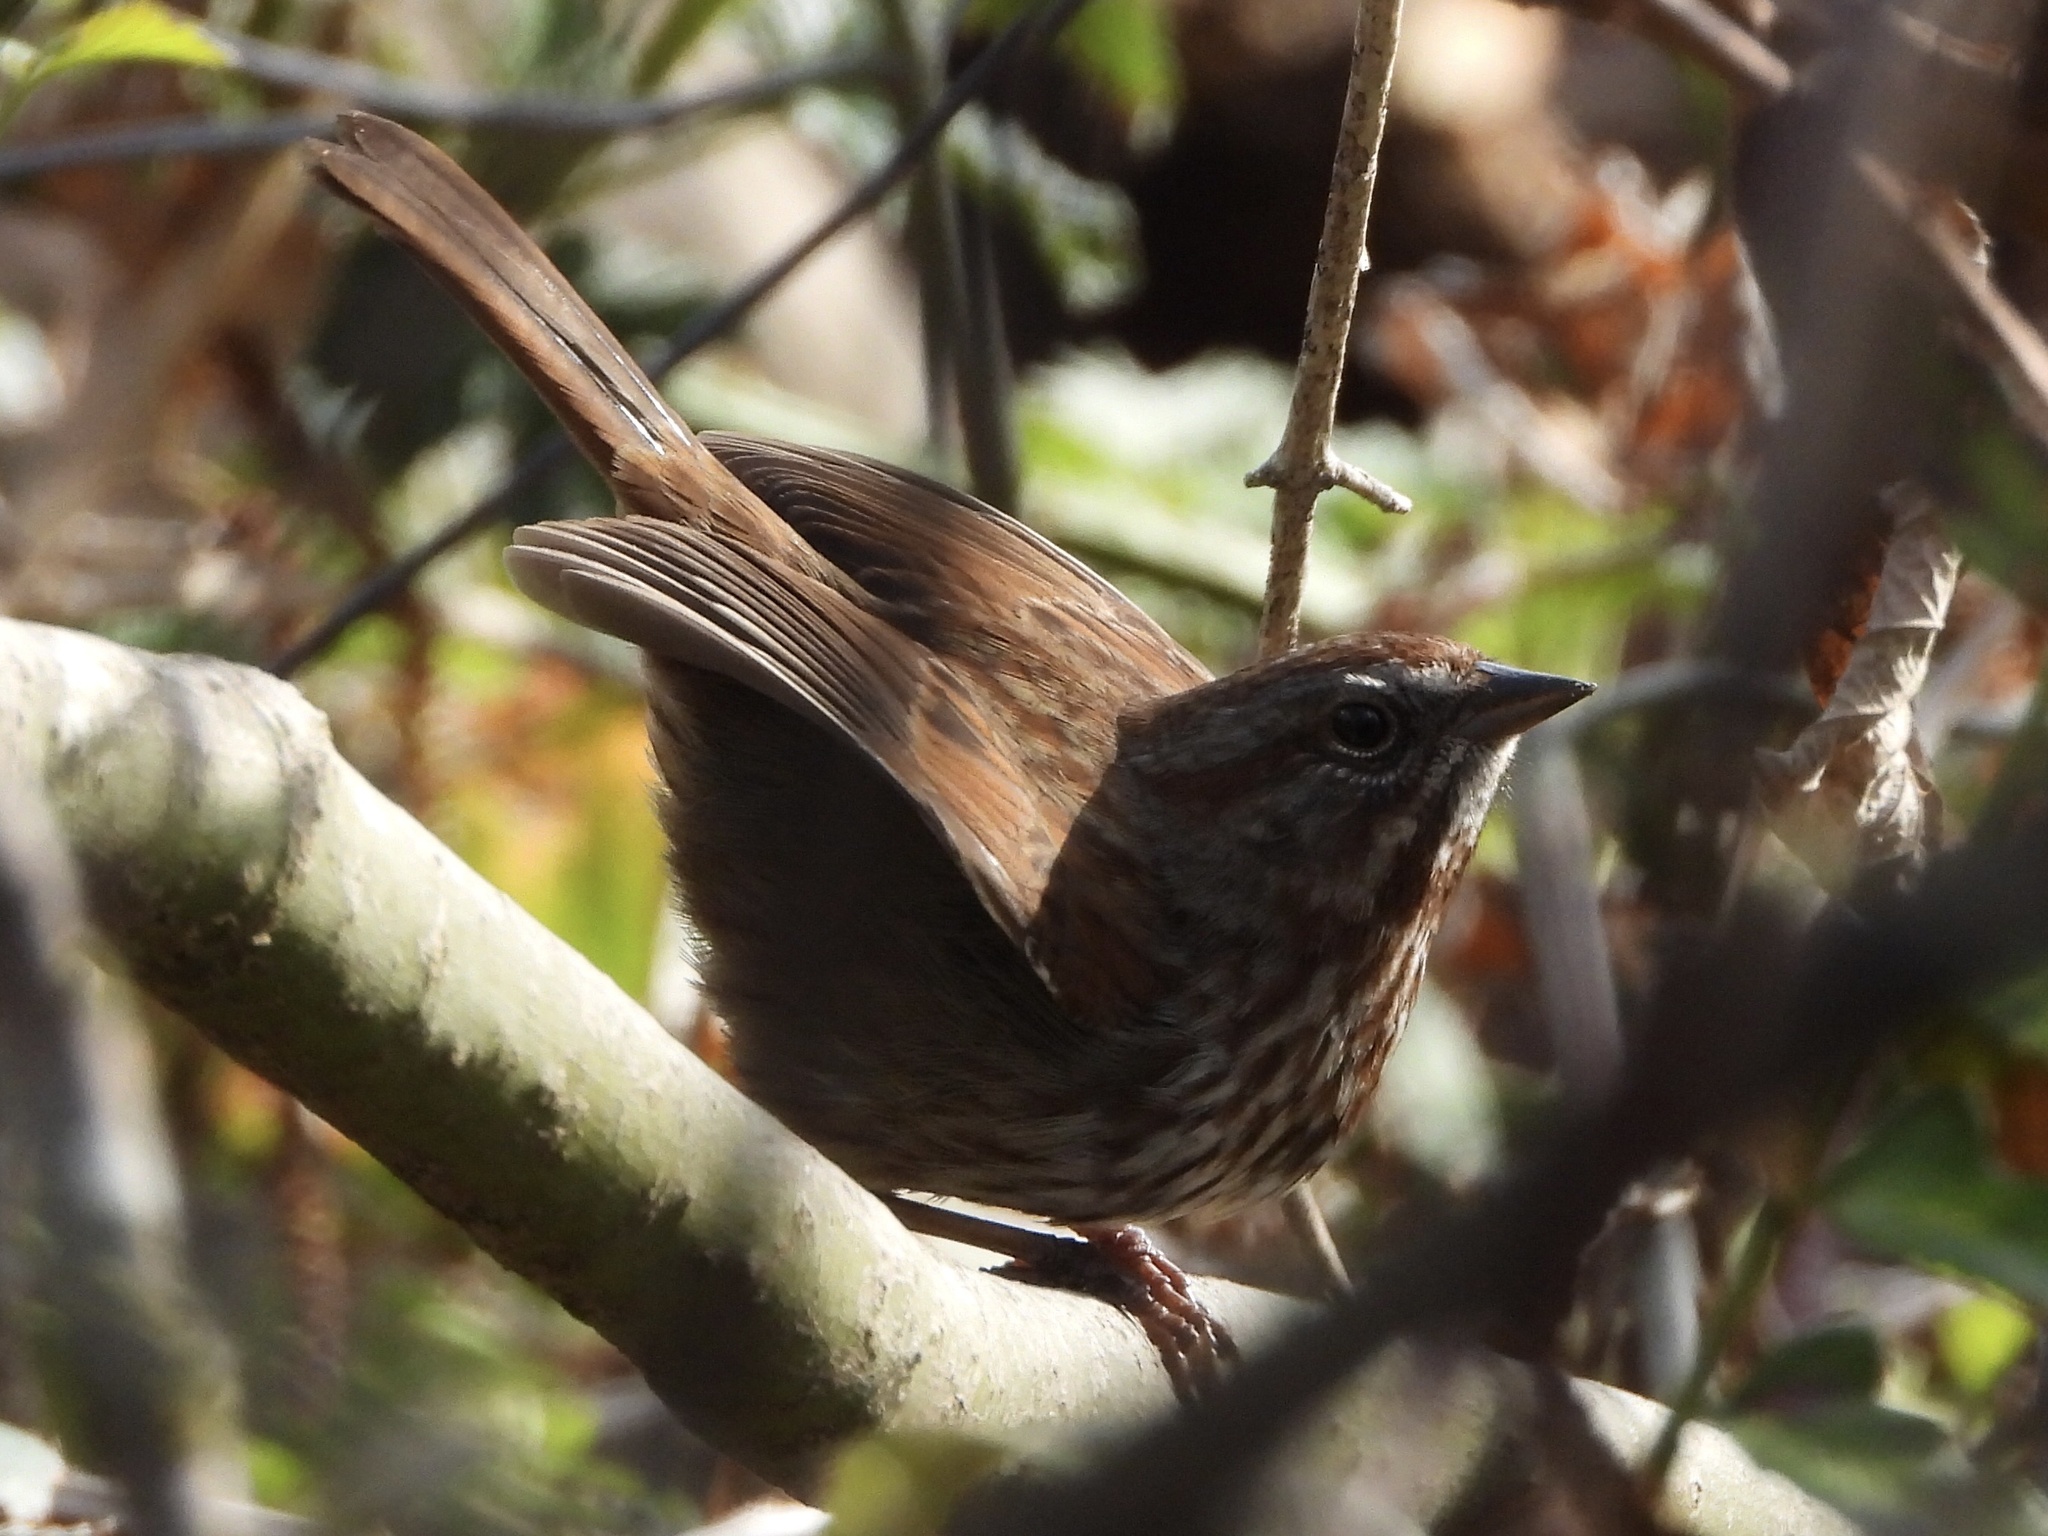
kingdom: Animalia
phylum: Chordata
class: Aves
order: Passeriformes
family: Passerellidae
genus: Melospiza
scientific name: Melospiza melodia
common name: Song sparrow
